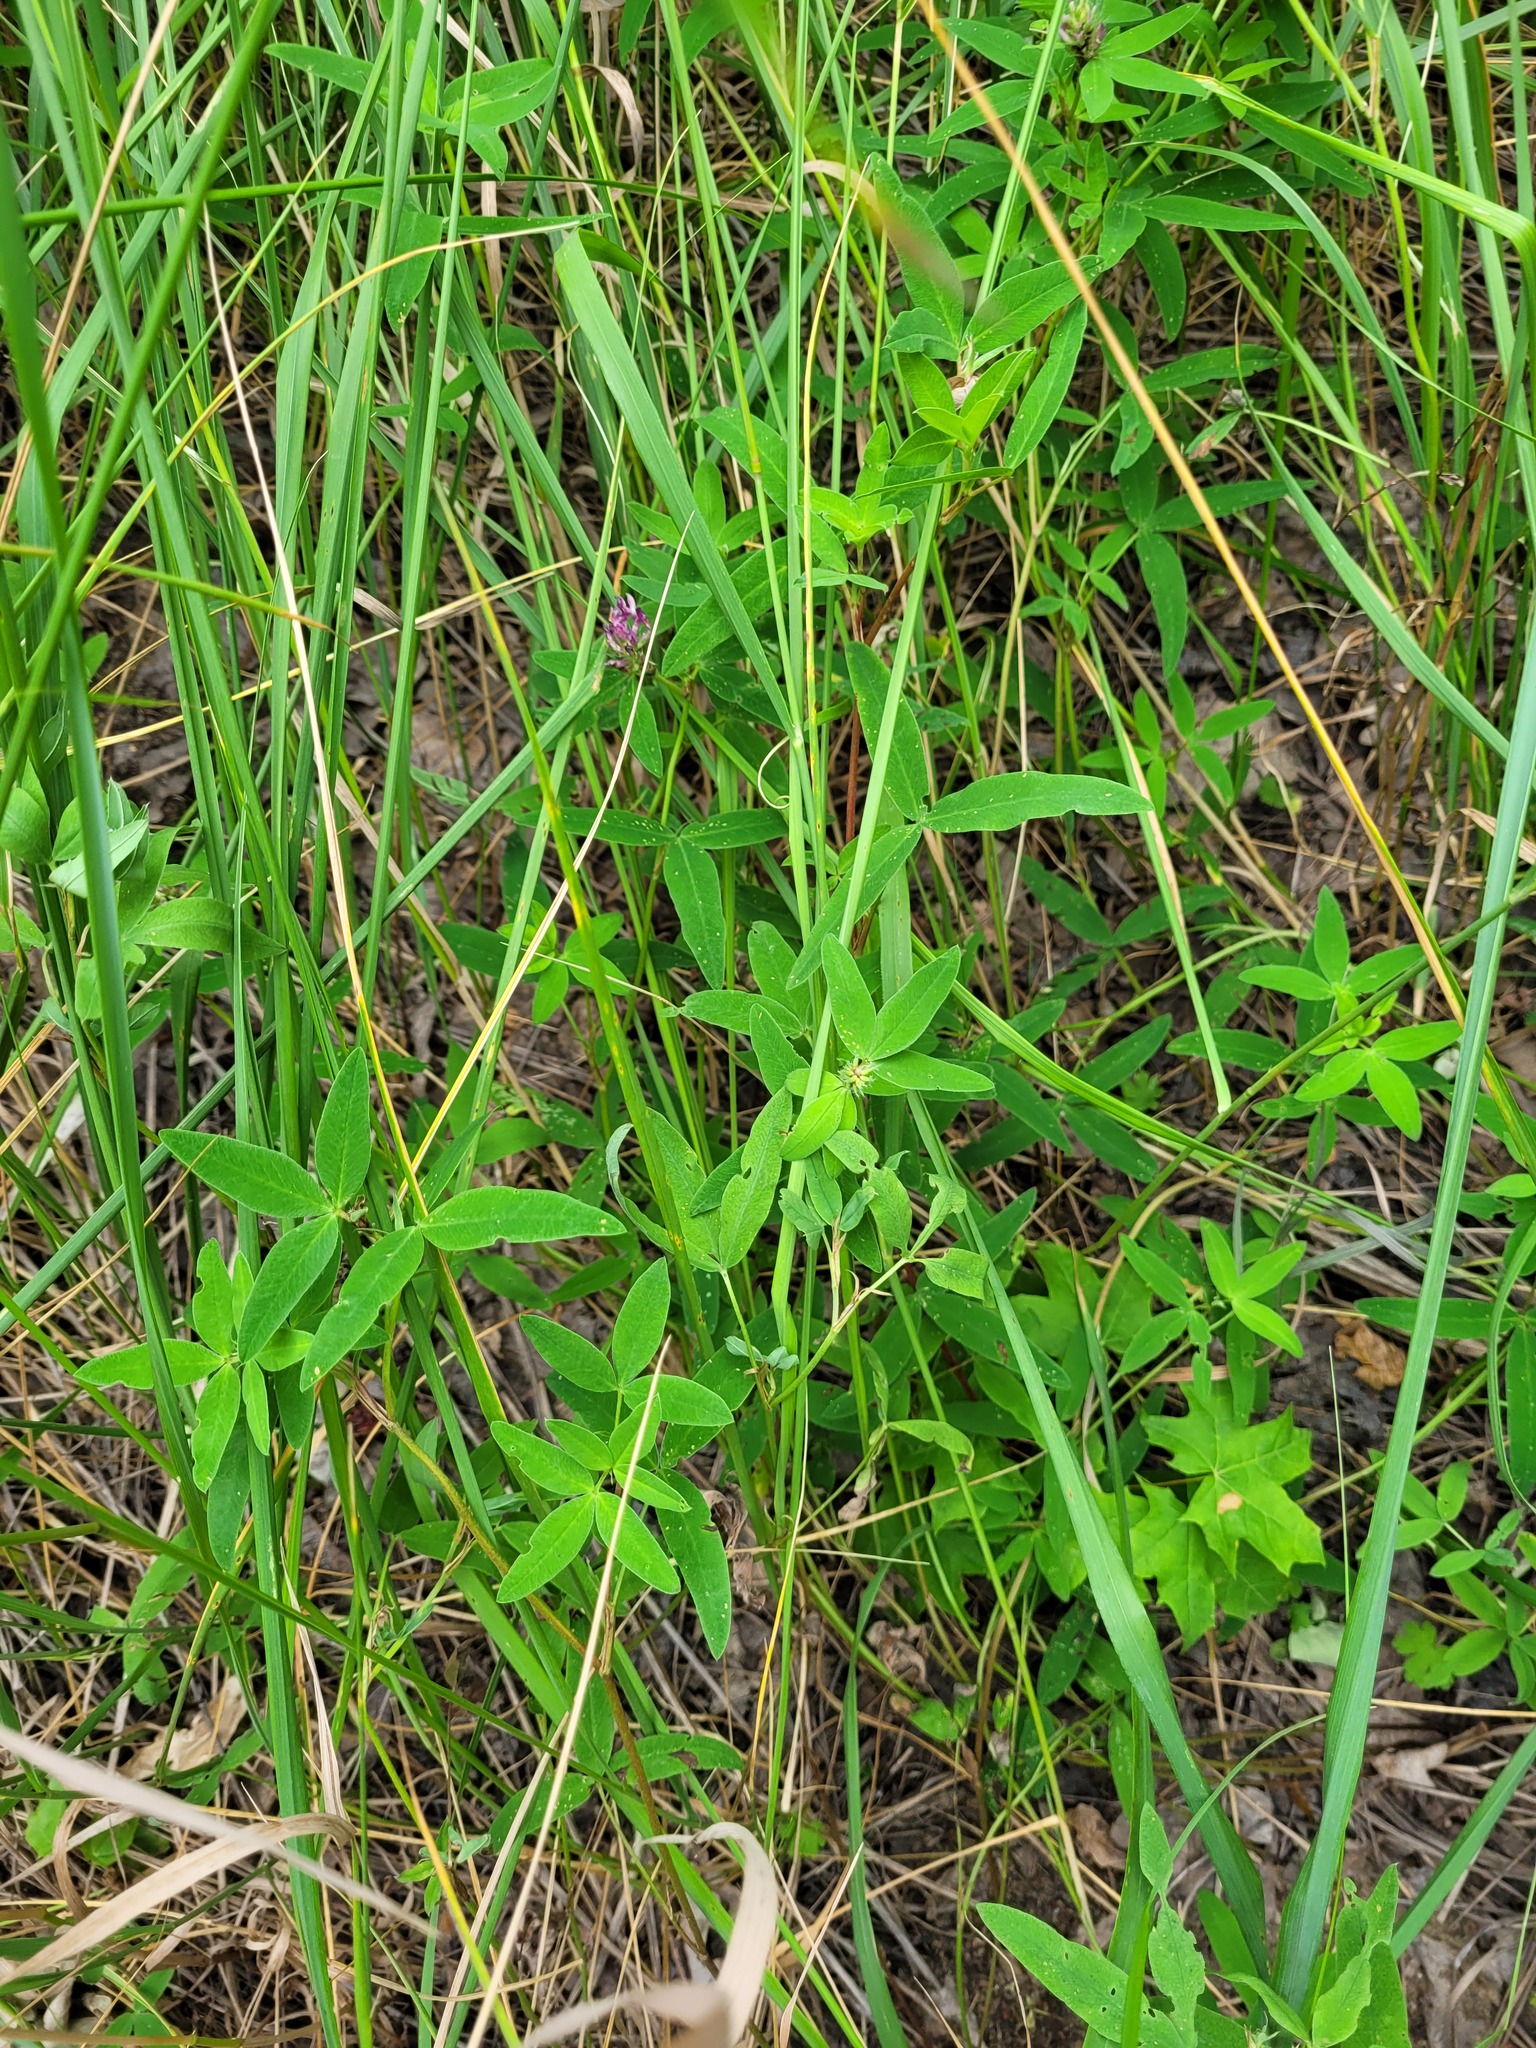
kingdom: Plantae
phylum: Tracheophyta
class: Magnoliopsida
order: Fabales
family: Fabaceae
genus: Trifolium
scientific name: Trifolium medium
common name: Zigzag clover
